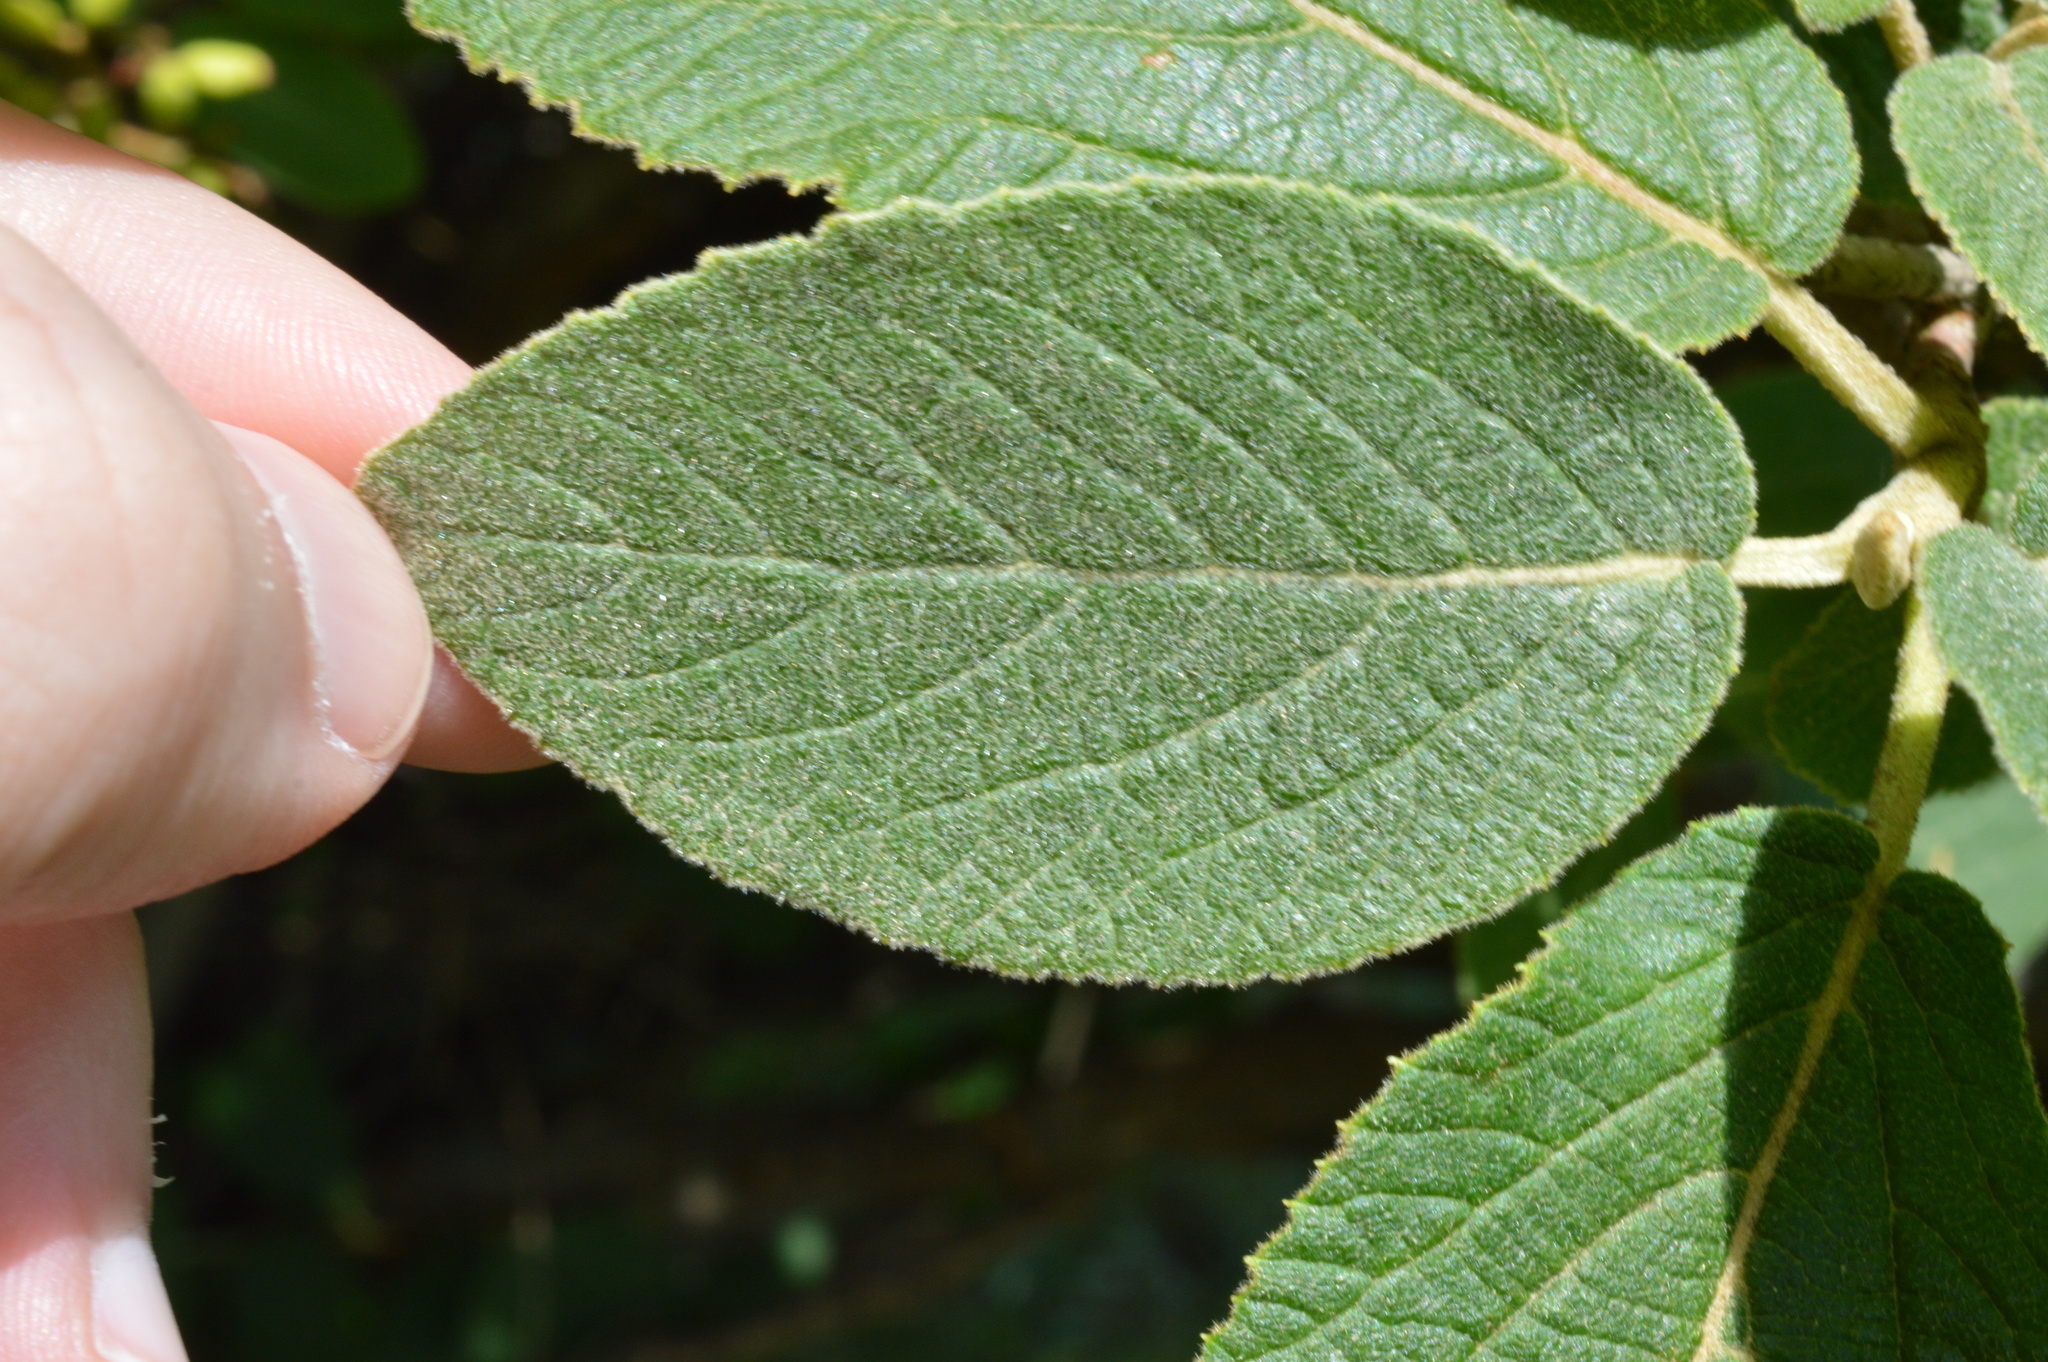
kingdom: Plantae
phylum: Tracheophyta
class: Magnoliopsida
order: Dipsacales
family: Viburnaceae
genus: Viburnum
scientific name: Viburnum lantana
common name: Wayfaring tree
